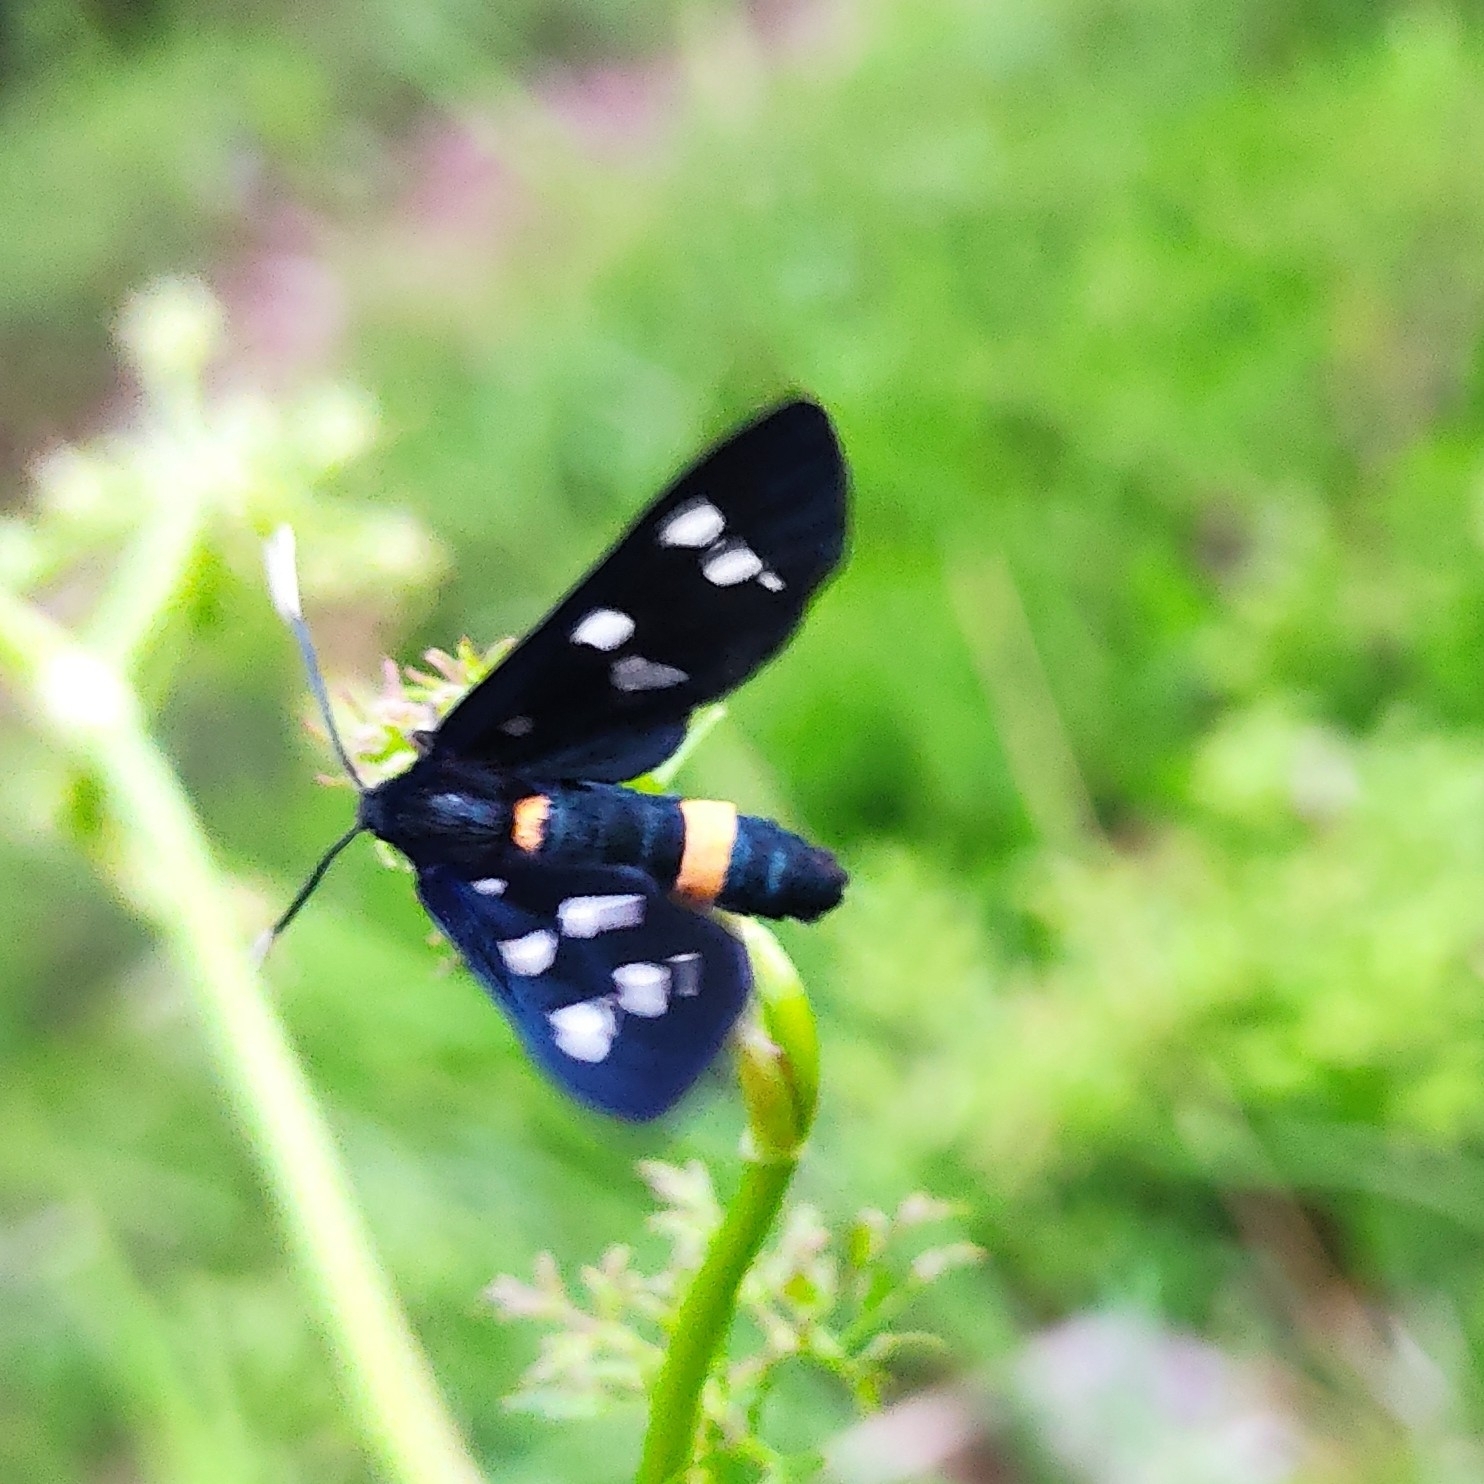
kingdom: Animalia
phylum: Arthropoda
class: Insecta
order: Lepidoptera
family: Erebidae
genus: Amata
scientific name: Amata phegea
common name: Nine-spotted
